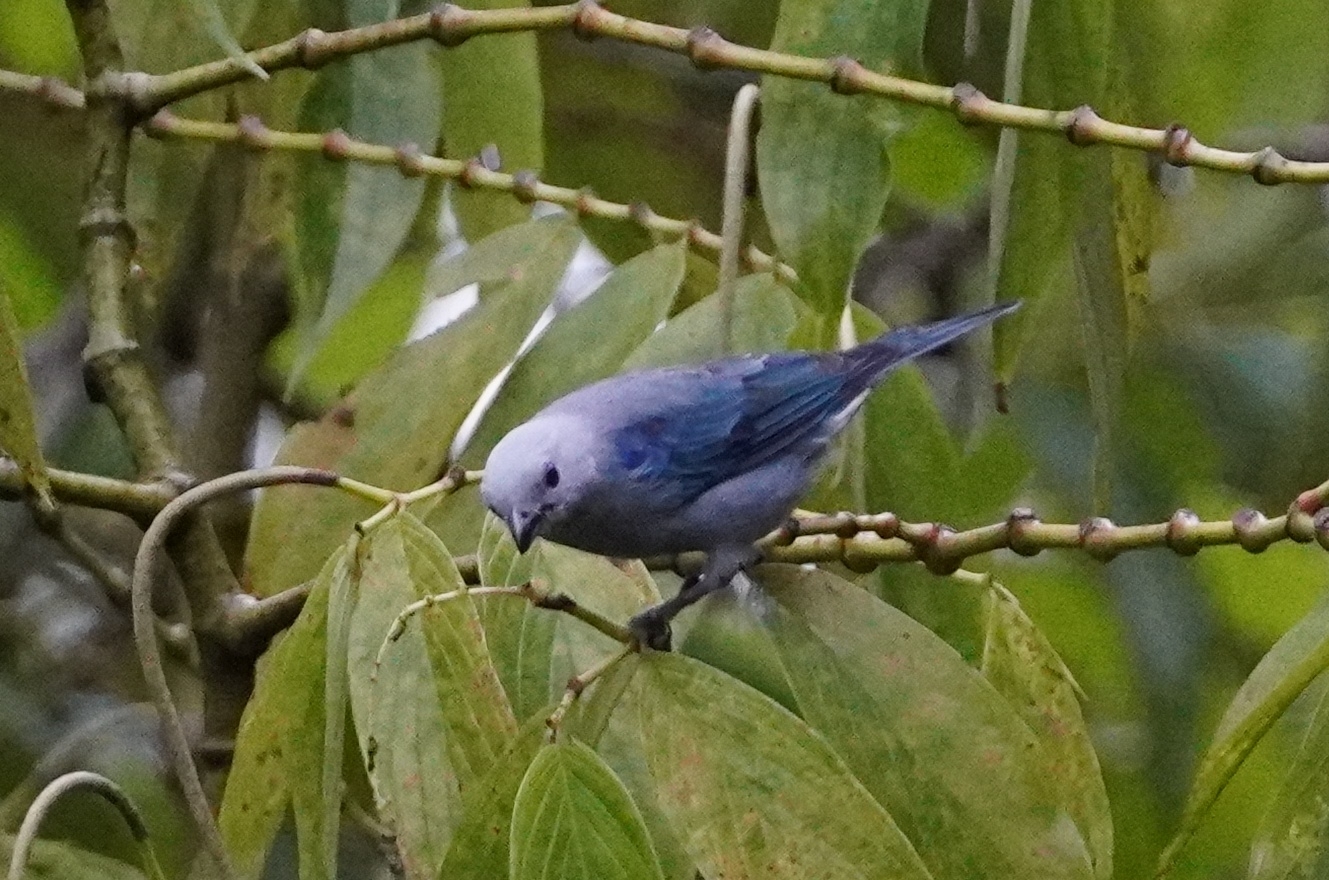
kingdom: Animalia
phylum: Chordata
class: Aves
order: Passeriformes
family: Thraupidae
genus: Thraupis
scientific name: Thraupis episcopus
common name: Blue-grey tanager
